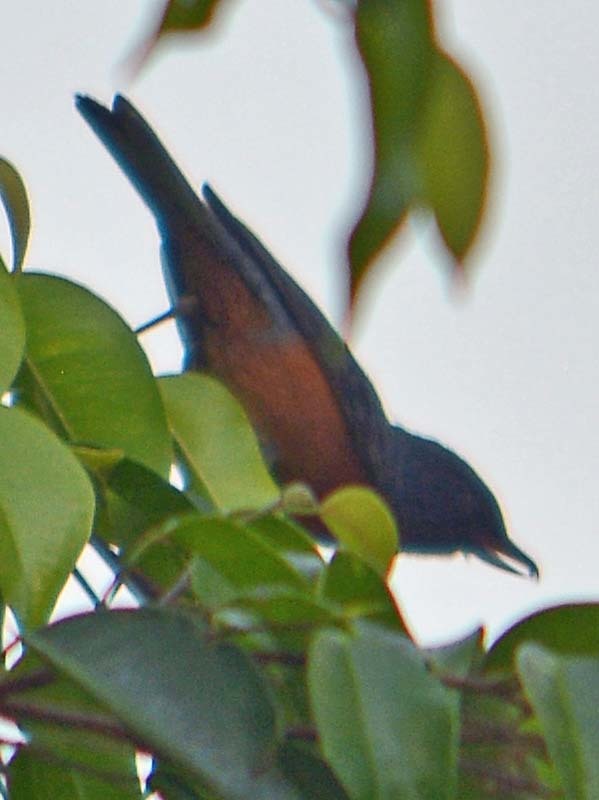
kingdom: Animalia
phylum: Chordata
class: Aves
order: Passeriformes
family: Thraupidae
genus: Diglossa
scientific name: Diglossa baritula
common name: Cinnamon-bellied flowerpiercer
